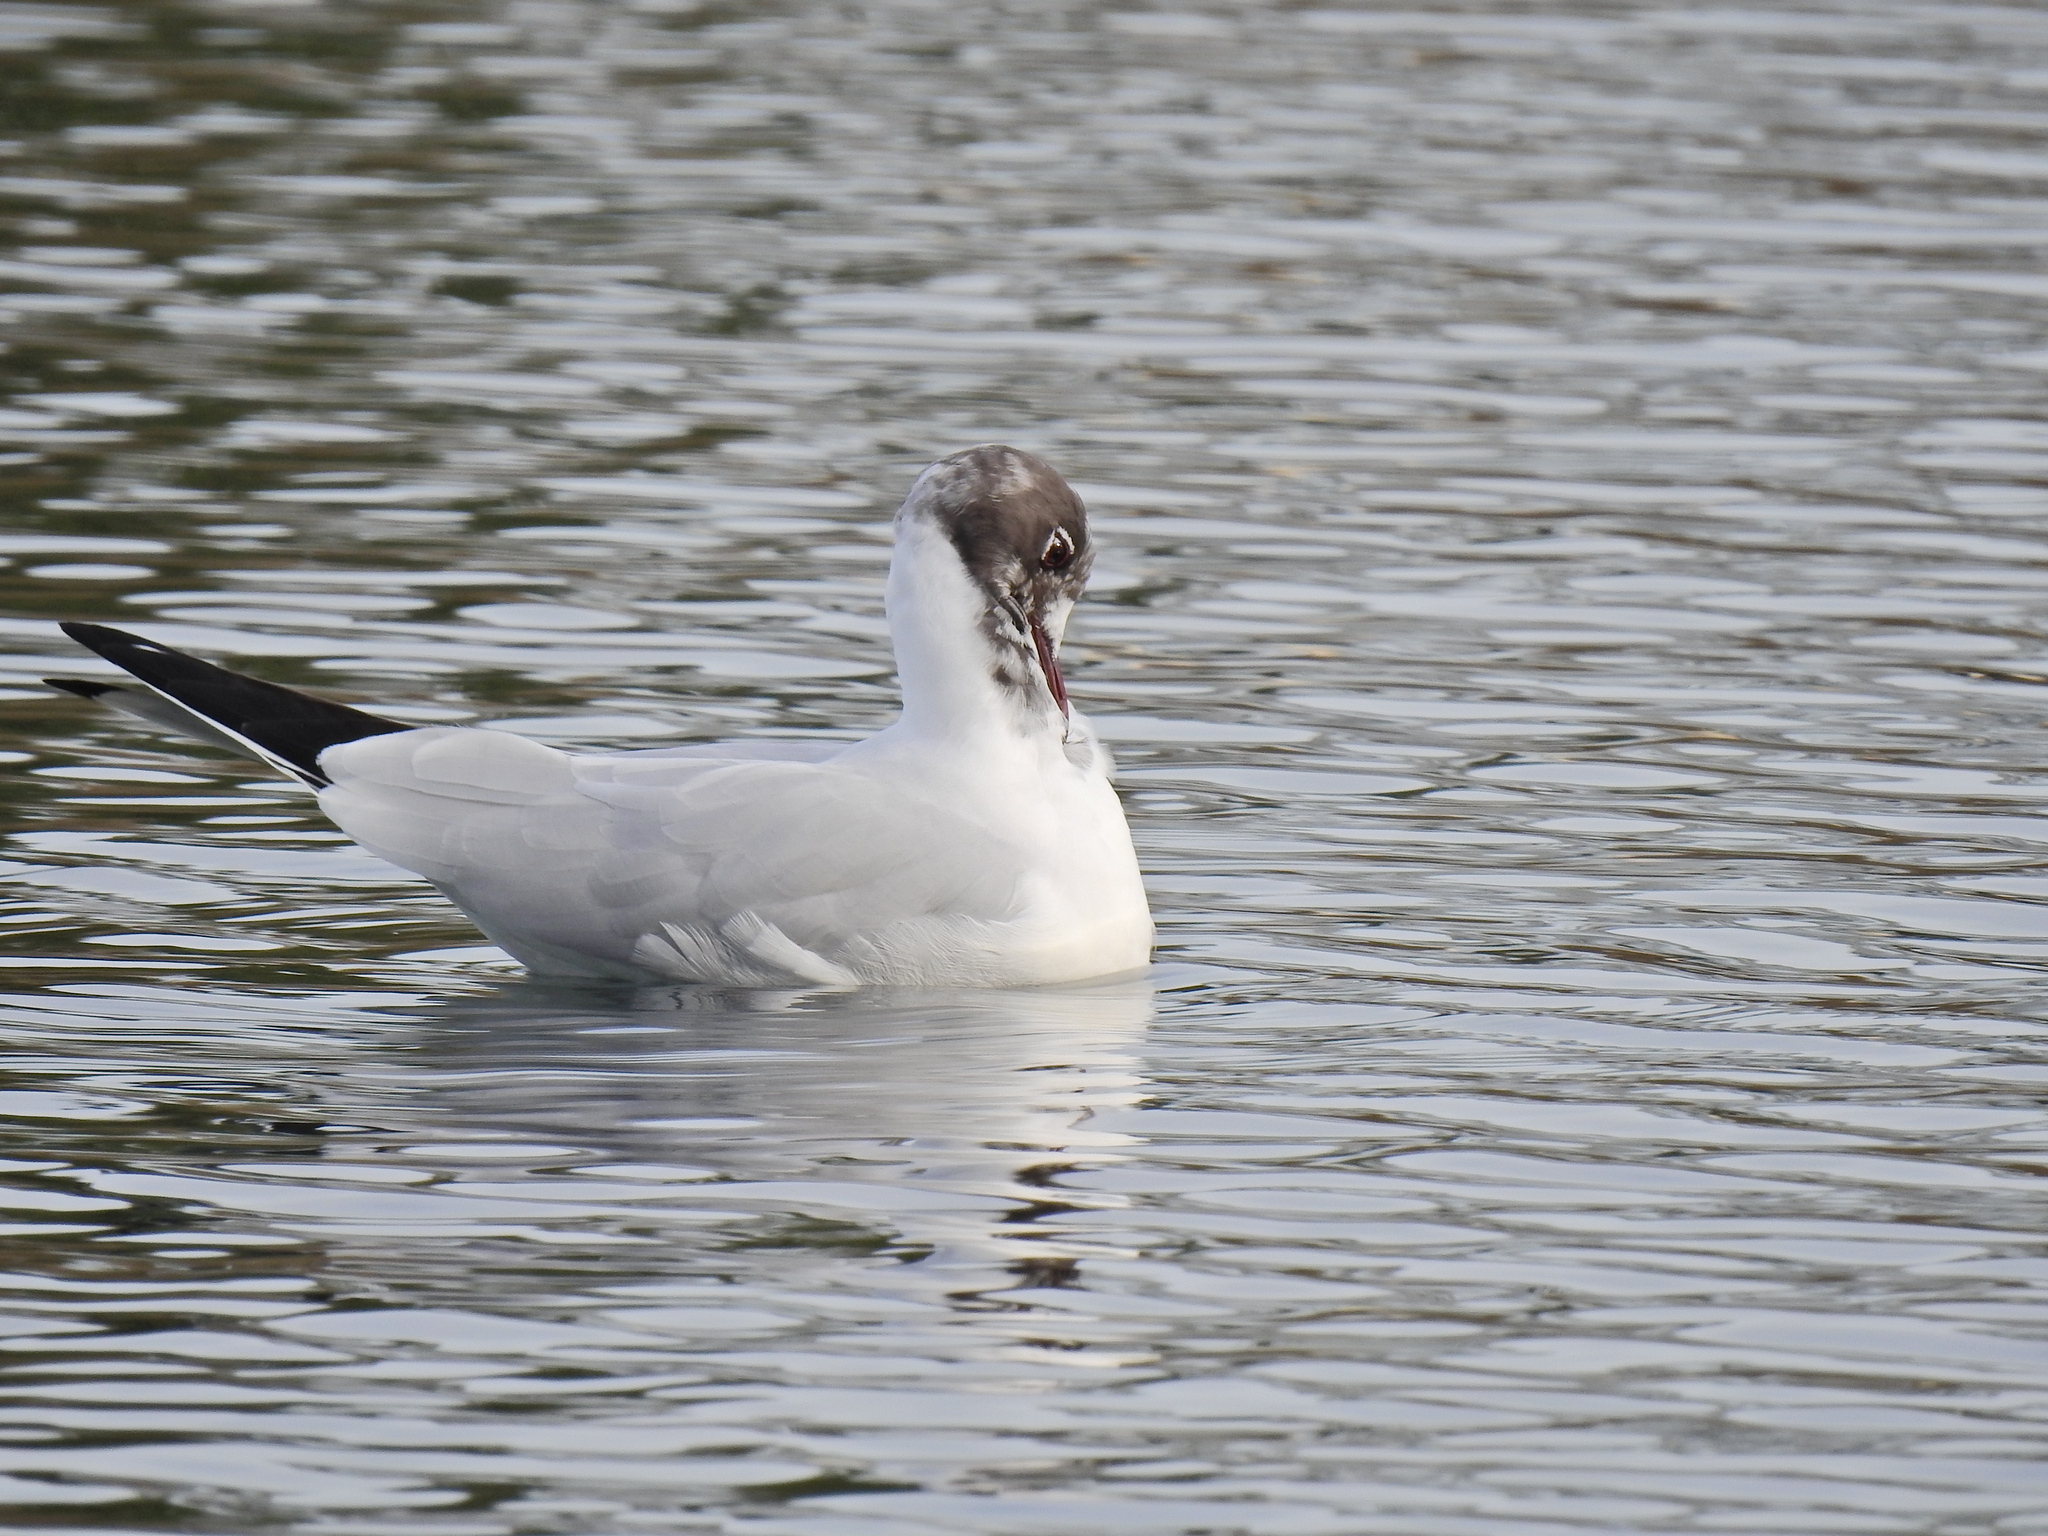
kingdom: Animalia
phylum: Chordata
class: Aves
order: Charadriiformes
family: Laridae
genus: Chroicocephalus
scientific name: Chroicocephalus ridibundus
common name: Black-headed gull
